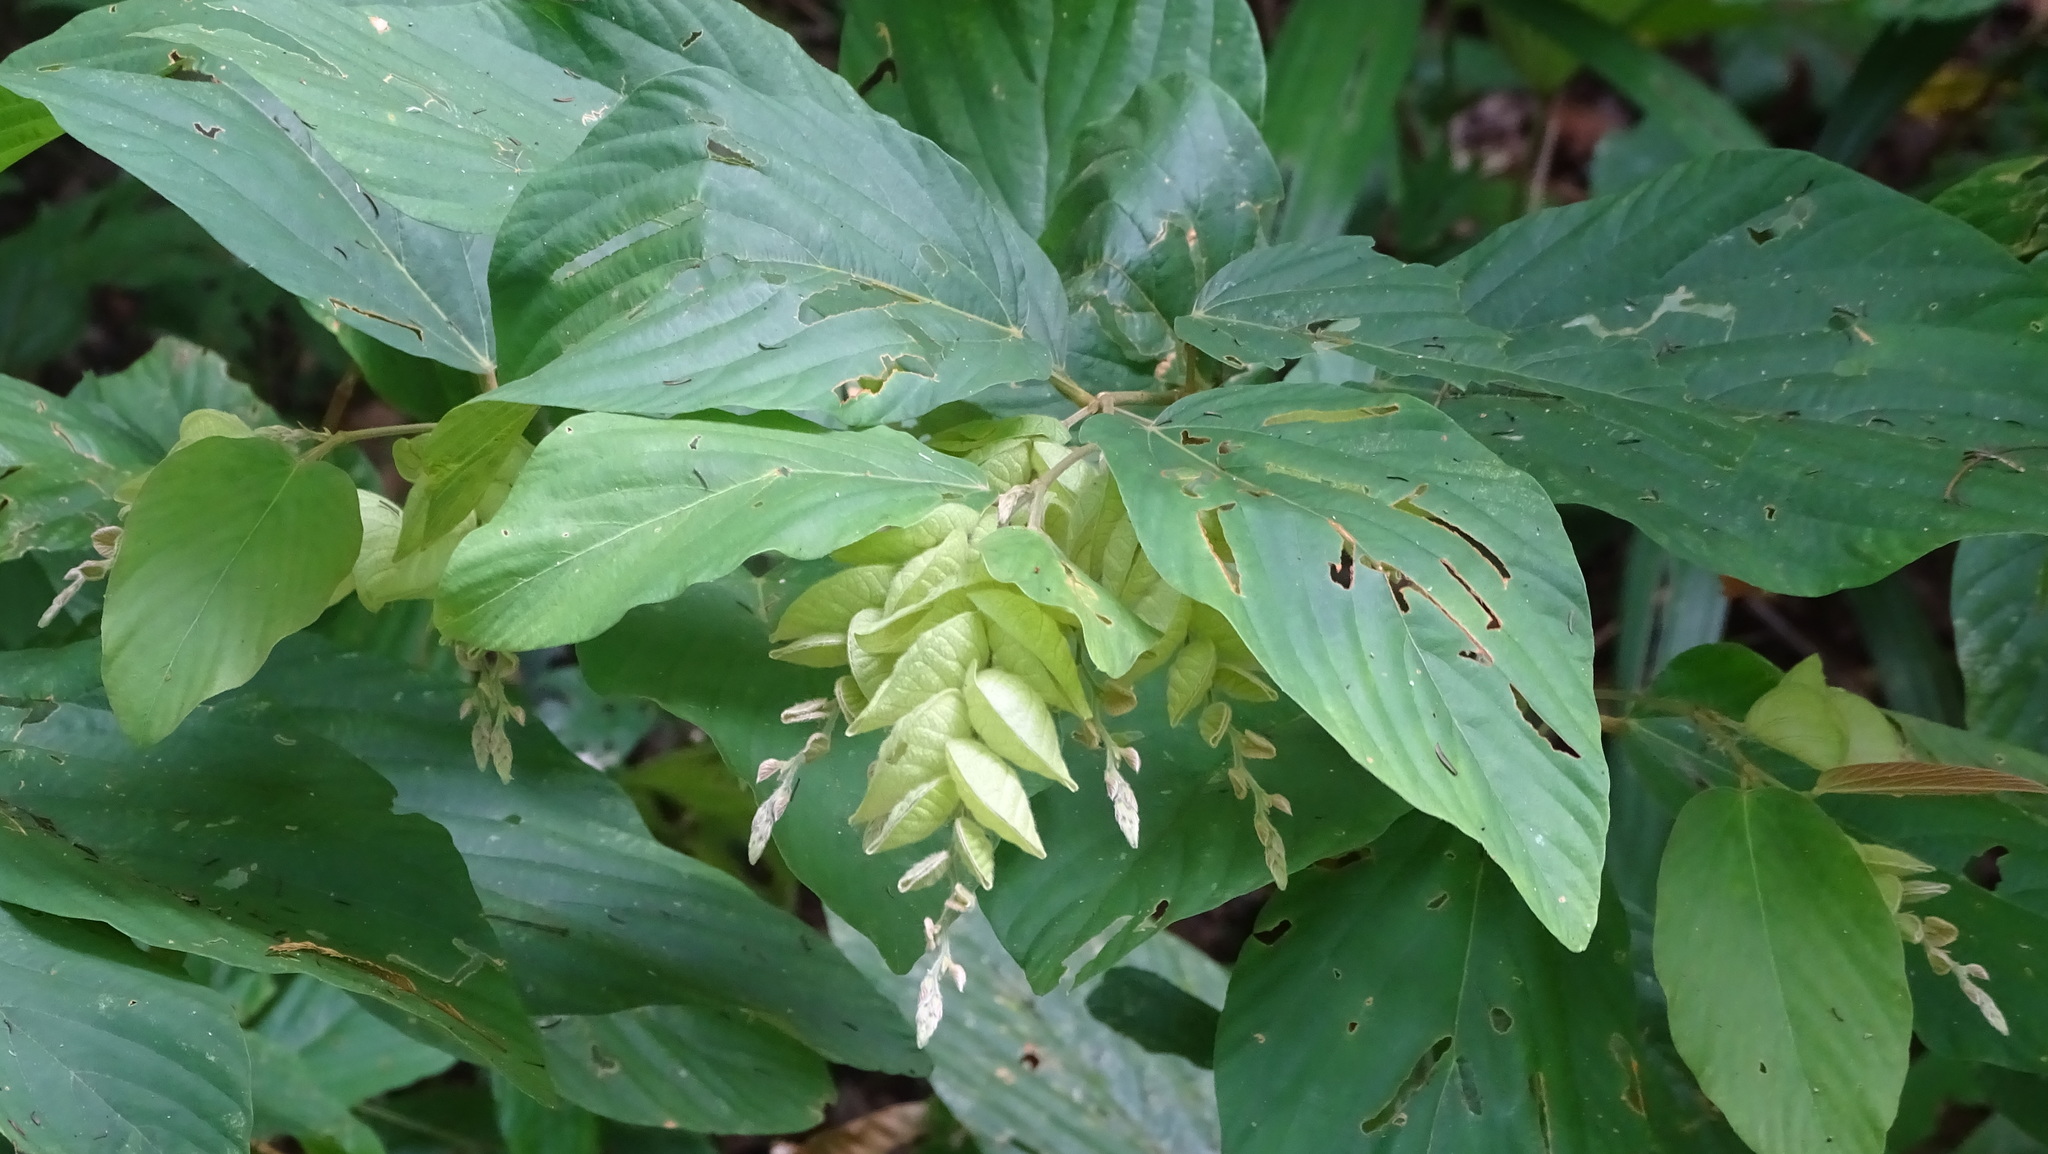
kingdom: Plantae
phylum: Tracheophyta
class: Magnoliopsida
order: Fabales
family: Fabaceae
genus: Flemingia
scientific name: Flemingia strobilifera
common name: Wild hops
